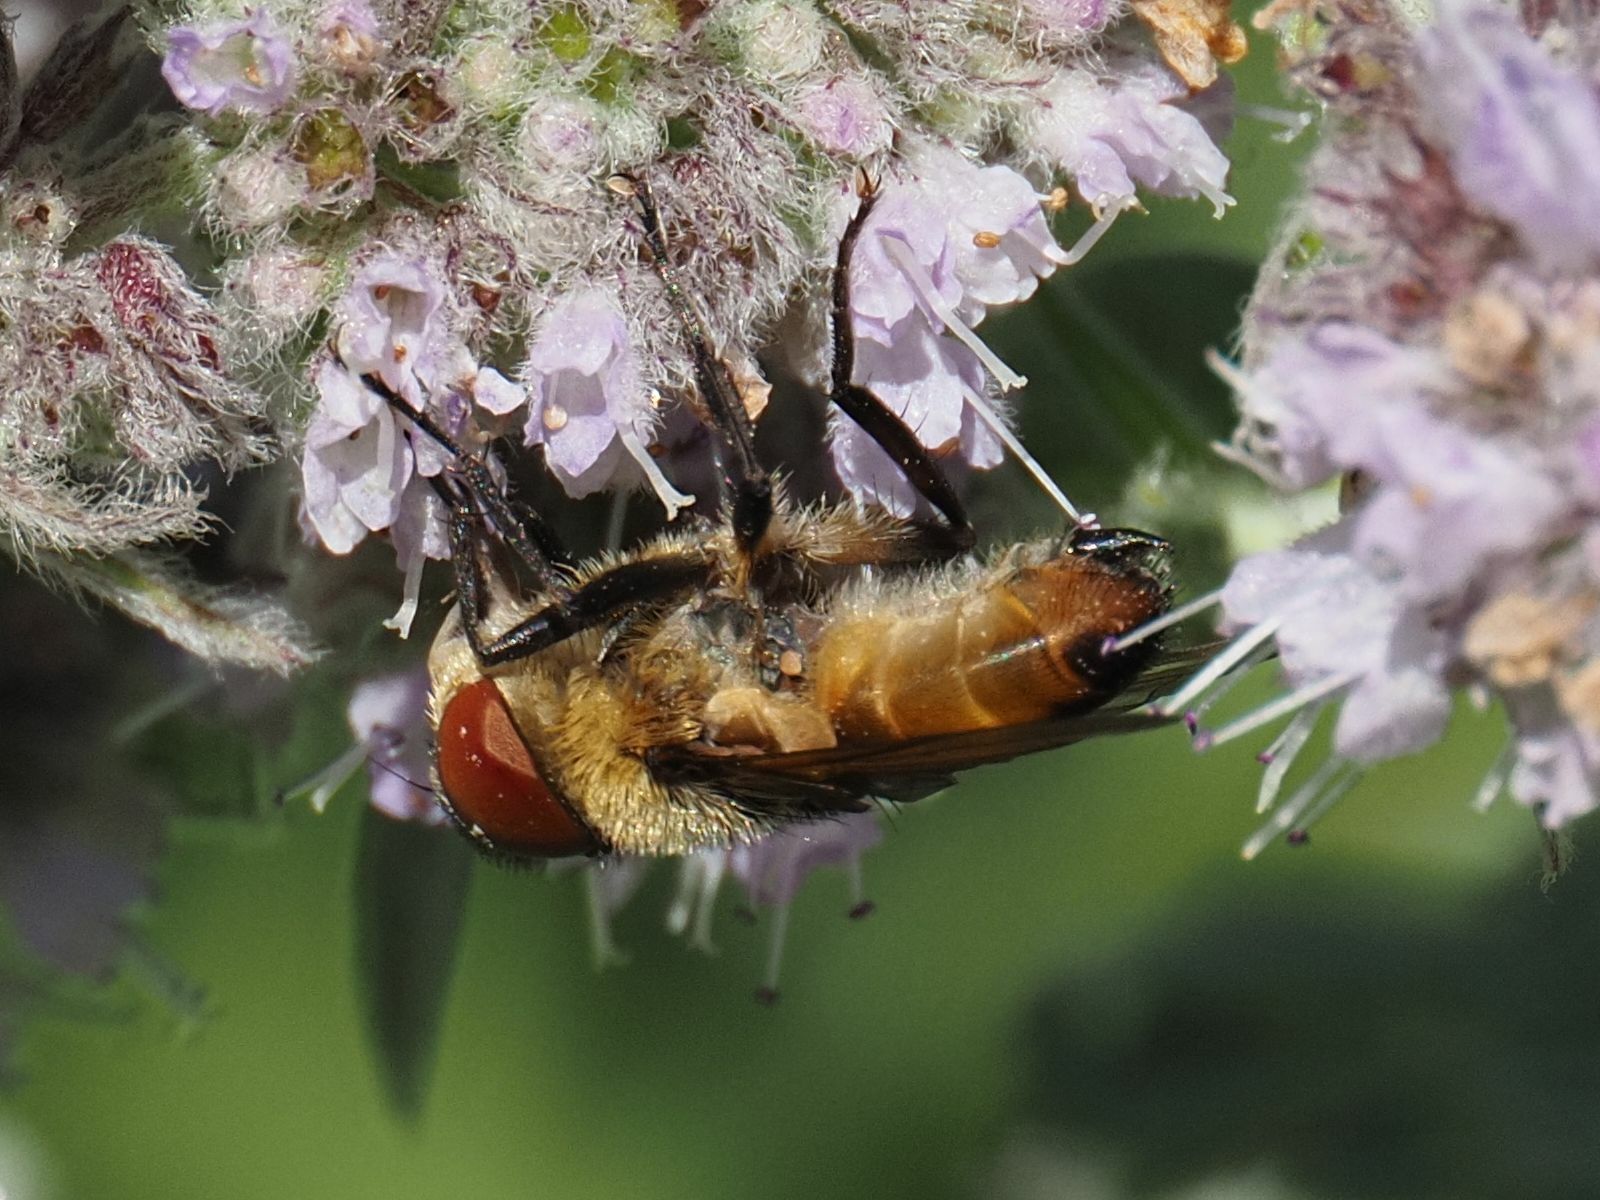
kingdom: Animalia
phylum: Arthropoda
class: Insecta
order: Diptera
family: Tachinidae
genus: Phasia
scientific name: Phasia hemiptera
